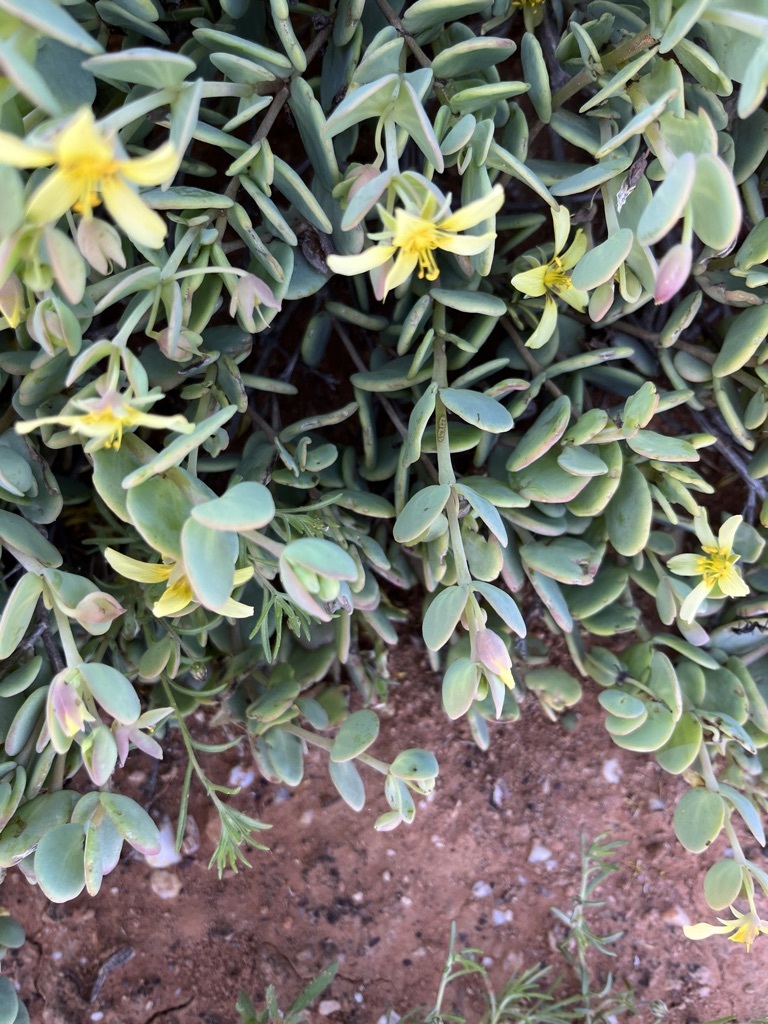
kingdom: Plantae
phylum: Tracheophyta
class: Magnoliopsida
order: Zygophyllales
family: Zygophyllaceae
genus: Roepera
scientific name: Roepera cordifolia
